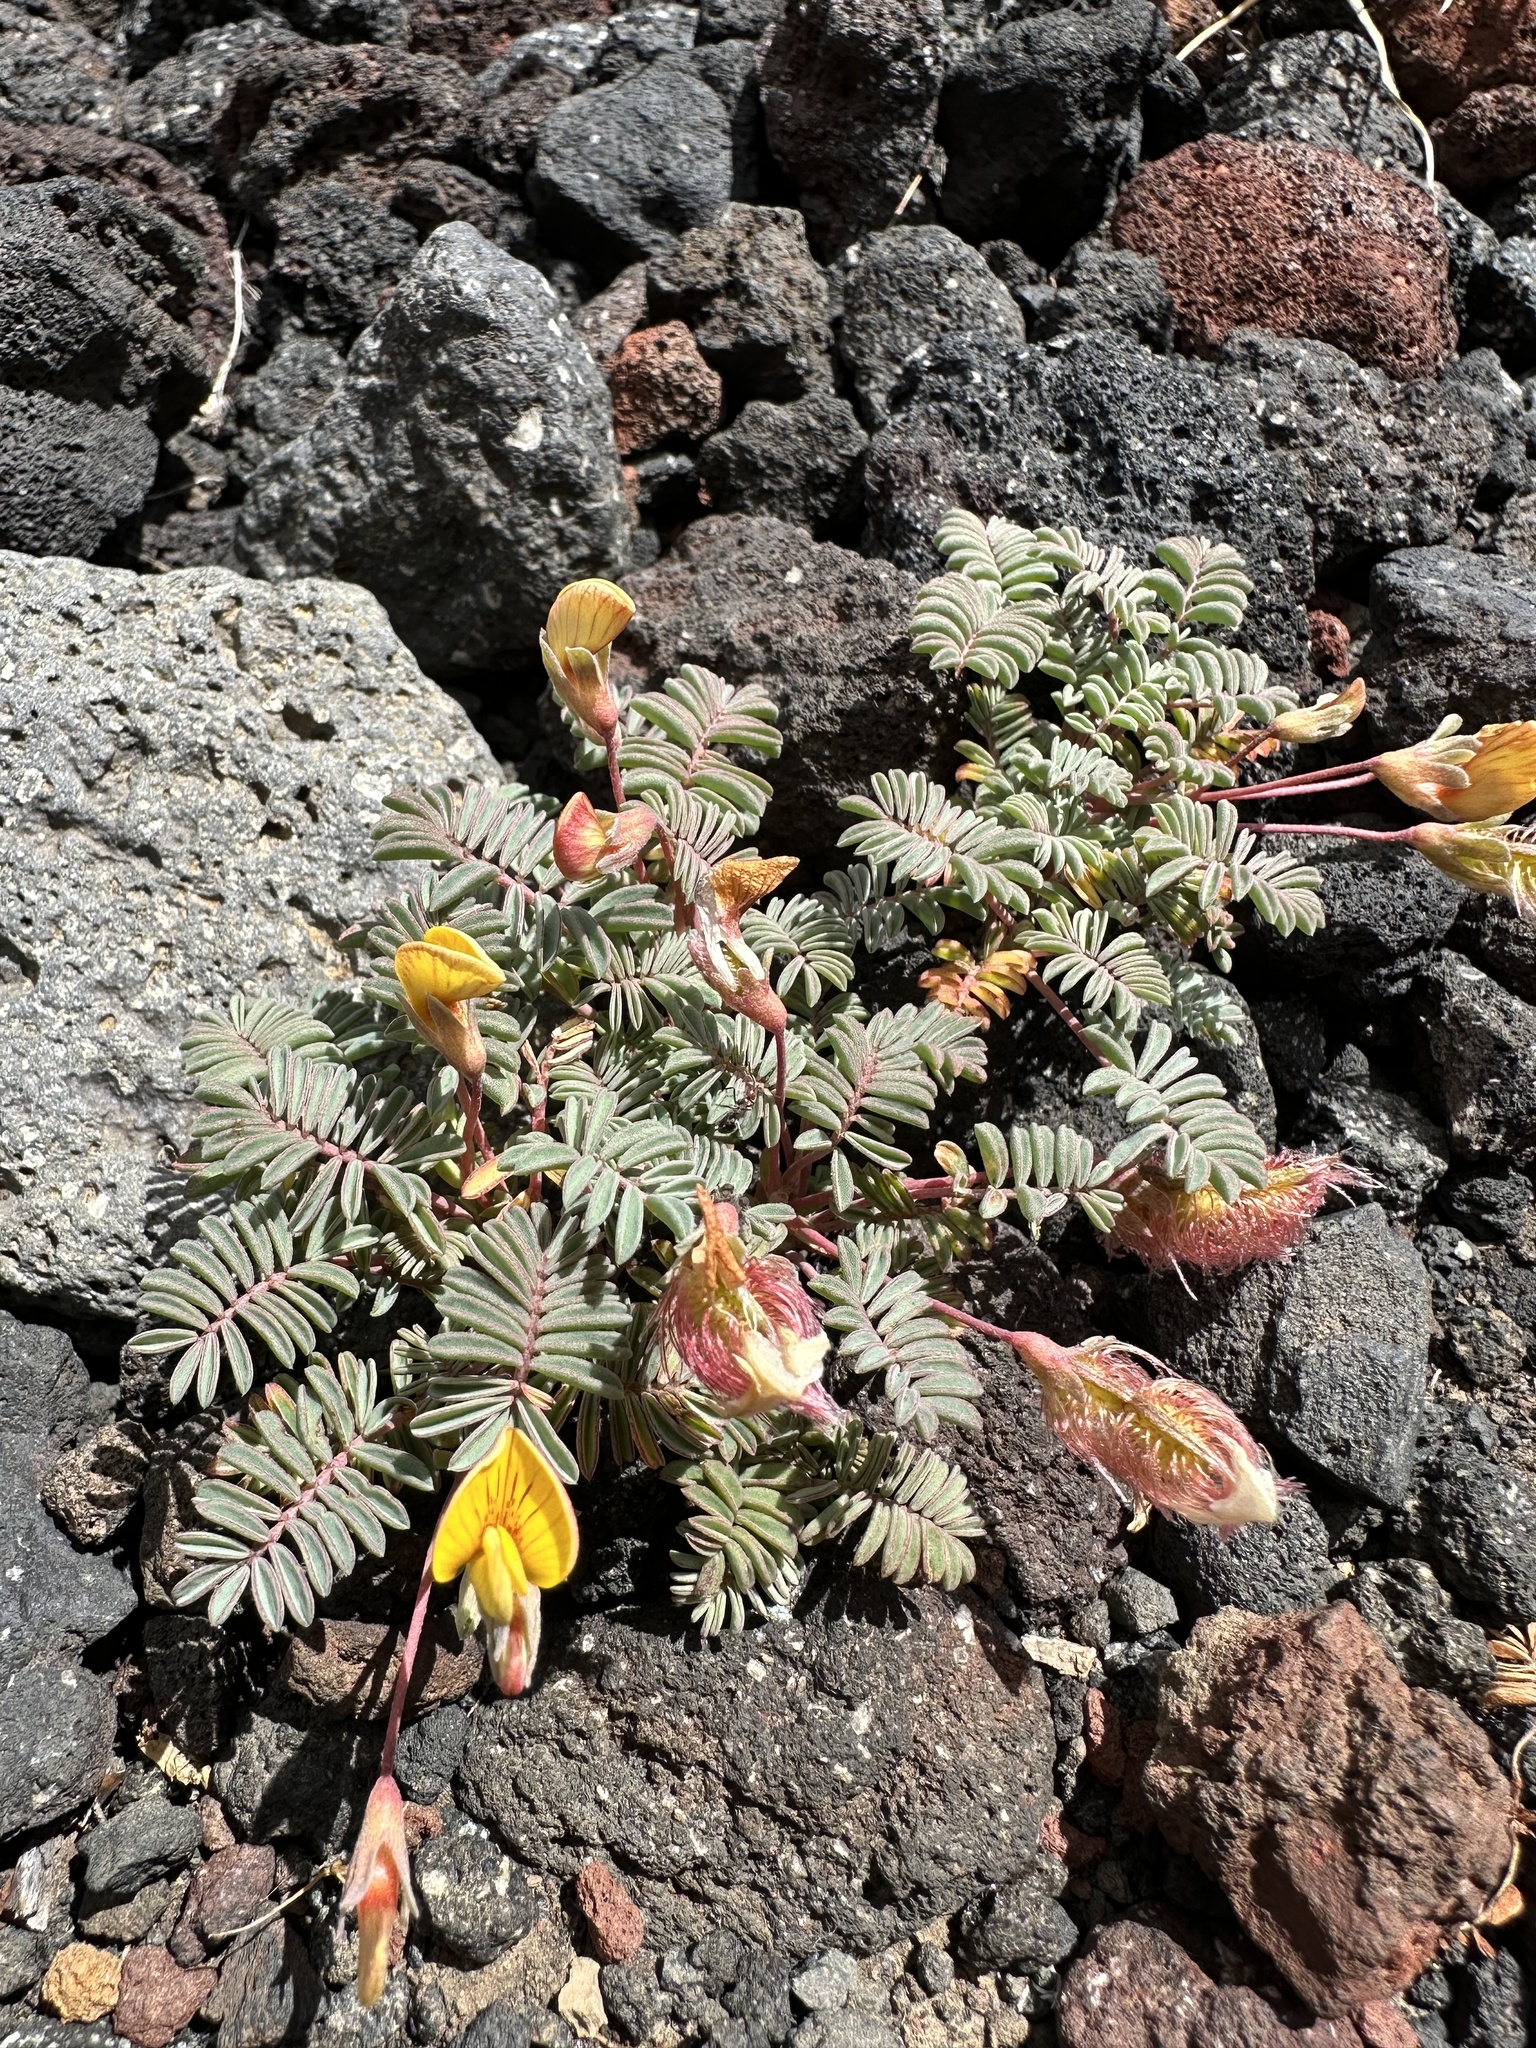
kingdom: Plantae
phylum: Tracheophyta
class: Magnoliopsida
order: Fabales
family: Fabaceae
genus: Adesmia
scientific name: Adesmia longipes
